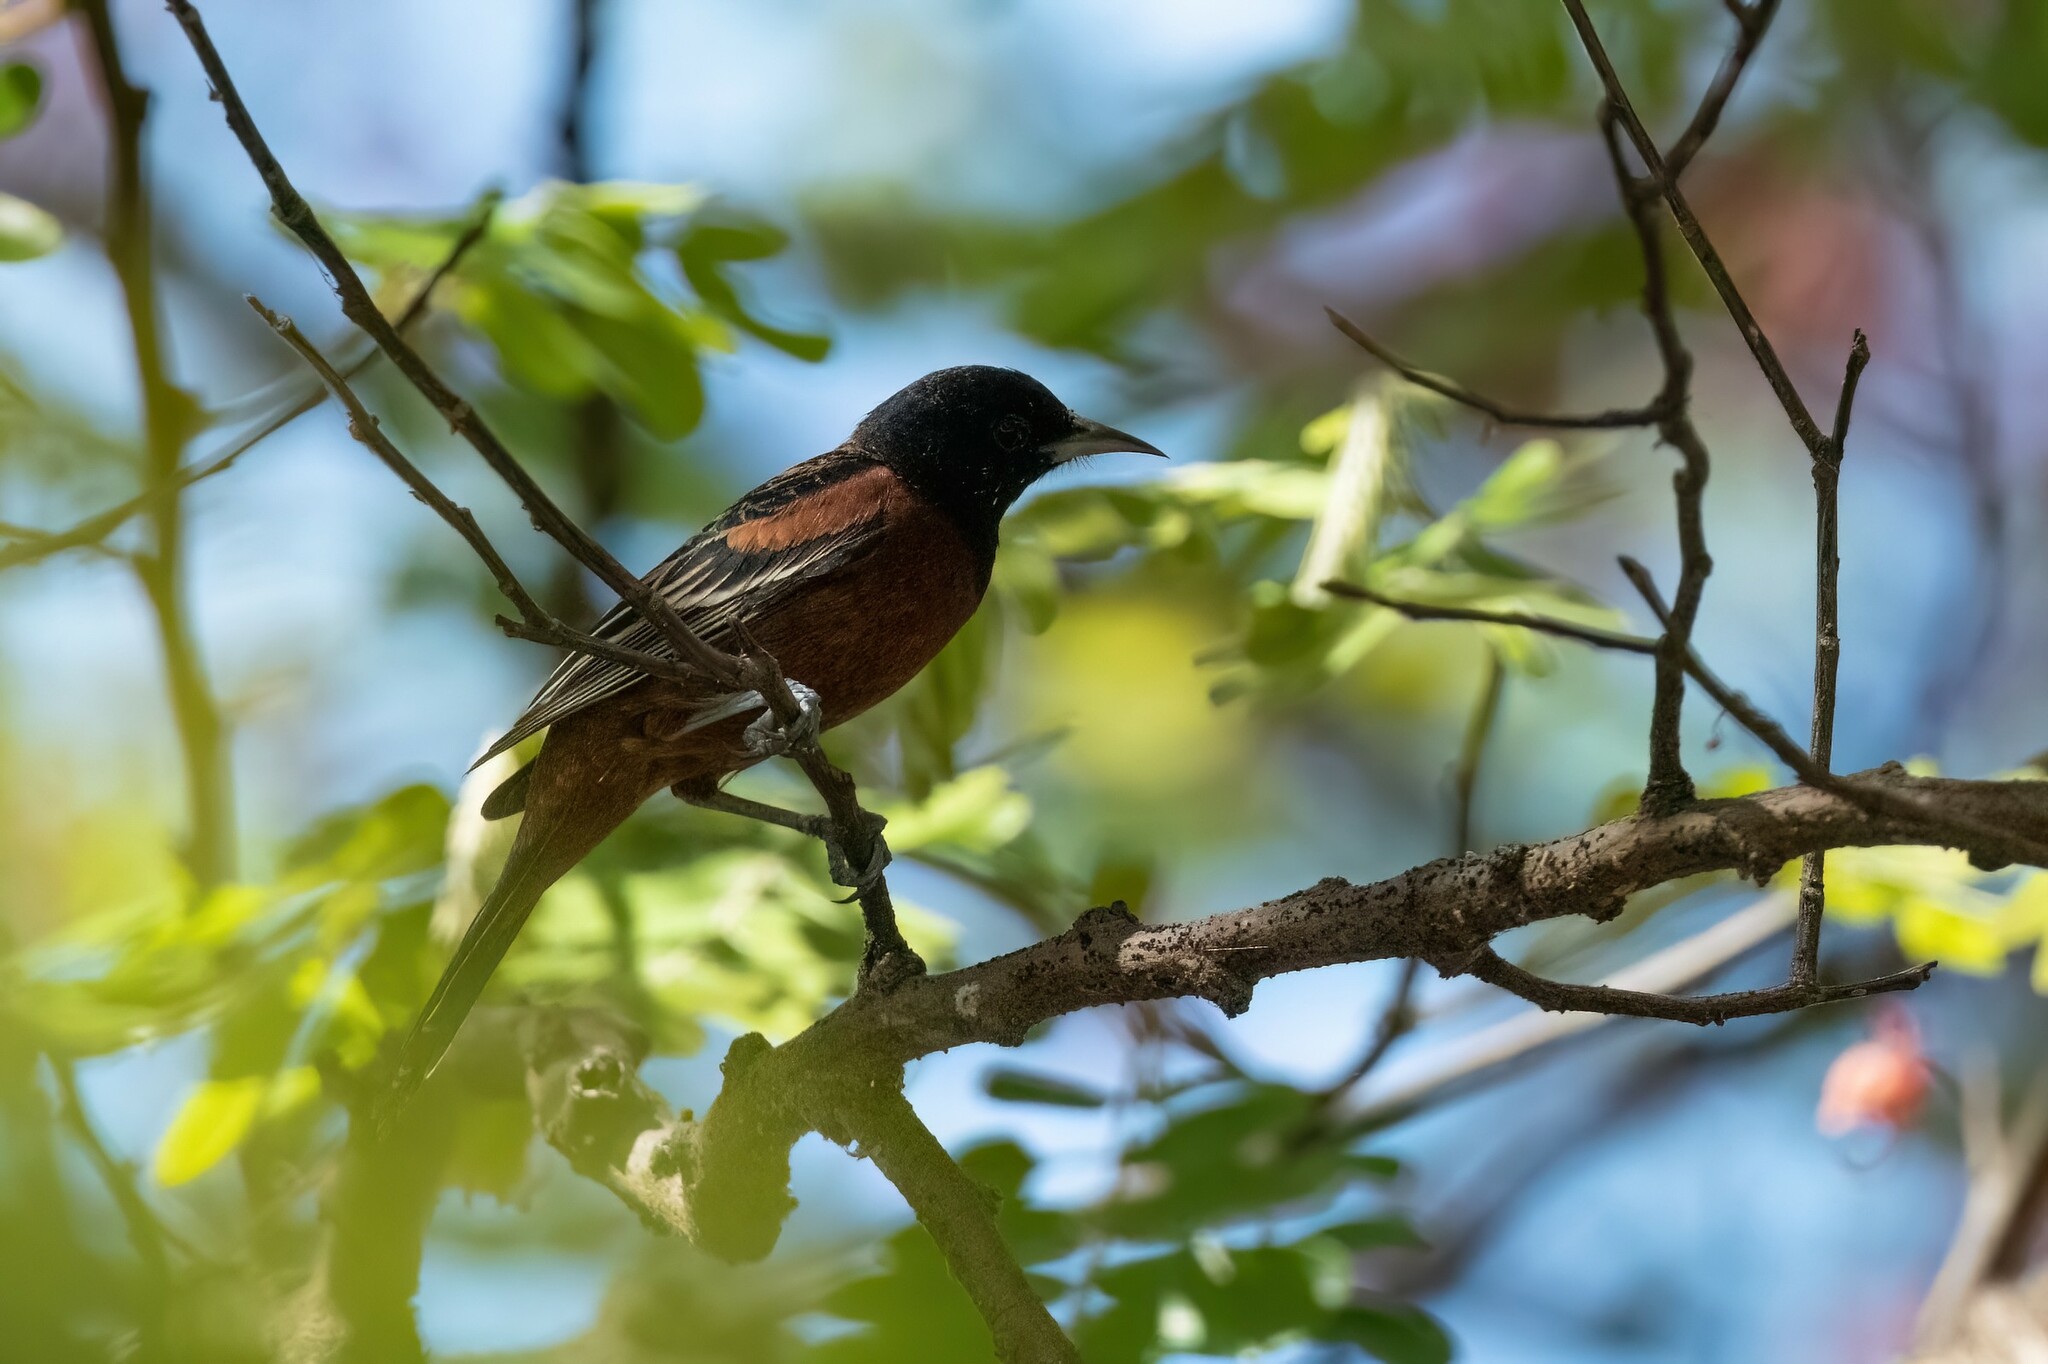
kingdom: Animalia
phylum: Chordata
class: Aves
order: Passeriformes
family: Icteridae
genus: Icterus
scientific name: Icterus spurius
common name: Orchard oriole
